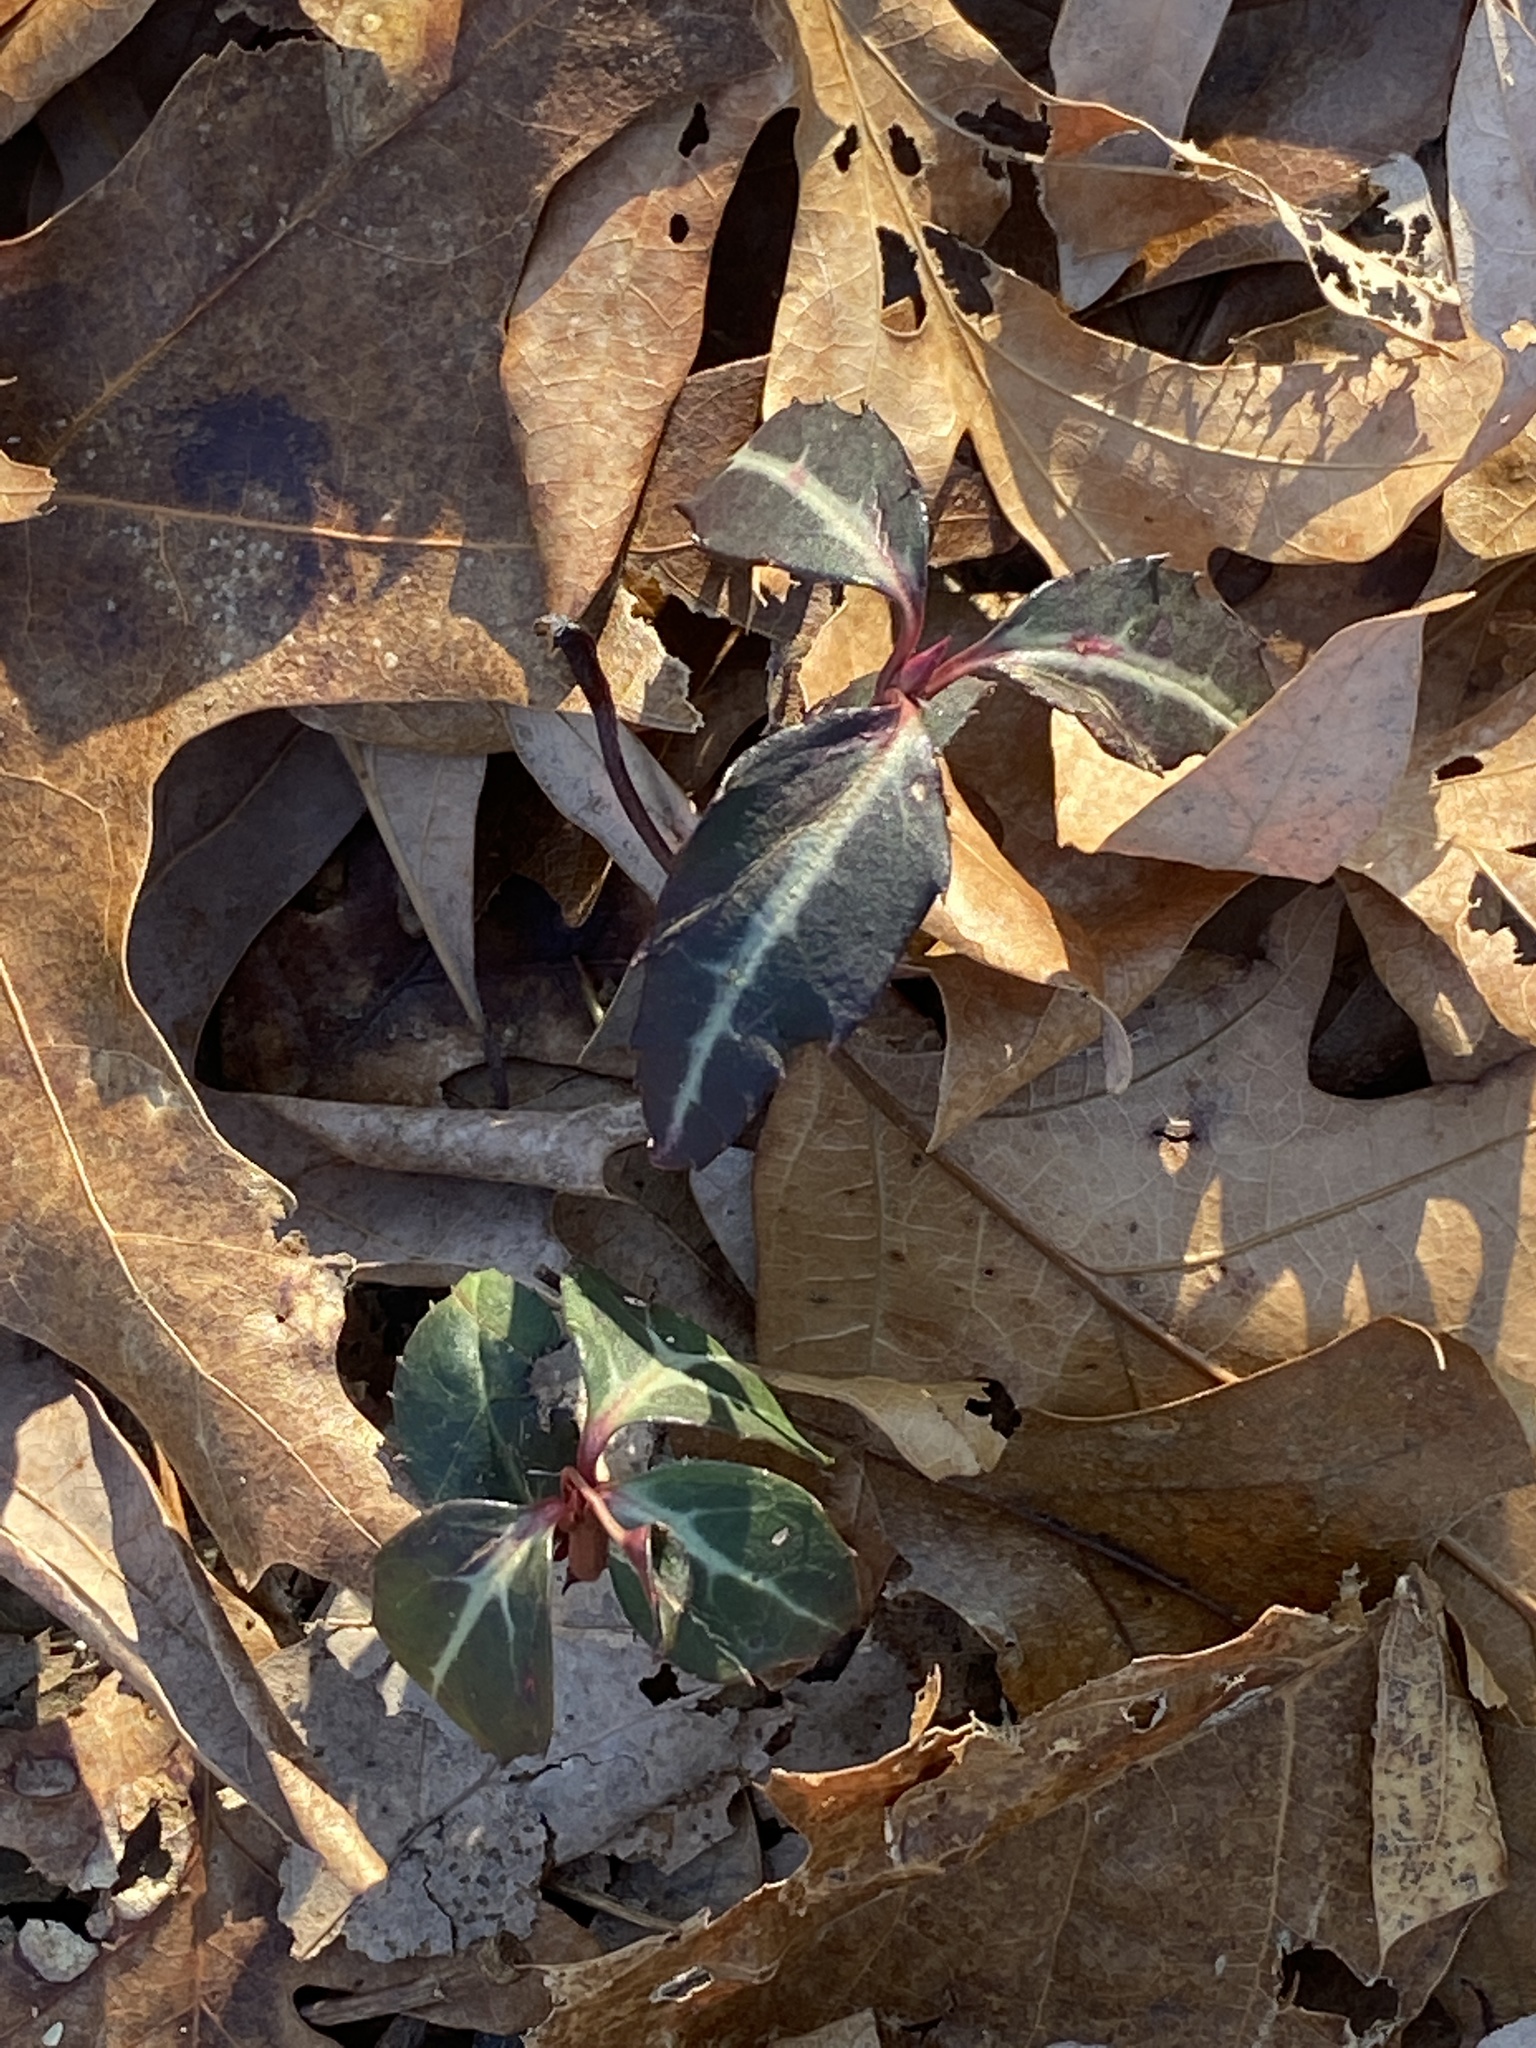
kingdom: Plantae
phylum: Tracheophyta
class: Magnoliopsida
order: Ericales
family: Ericaceae
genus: Chimaphila
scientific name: Chimaphila maculata
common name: Spotted pipsissewa
